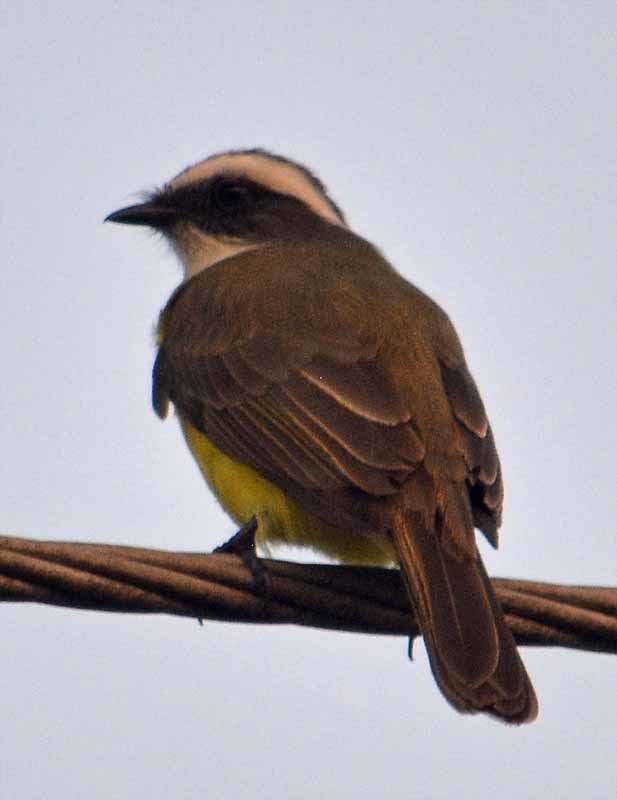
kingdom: Animalia
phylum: Chordata
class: Aves
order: Passeriformes
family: Tyrannidae
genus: Myiozetetes
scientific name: Myiozetetes similis
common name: Social flycatcher
